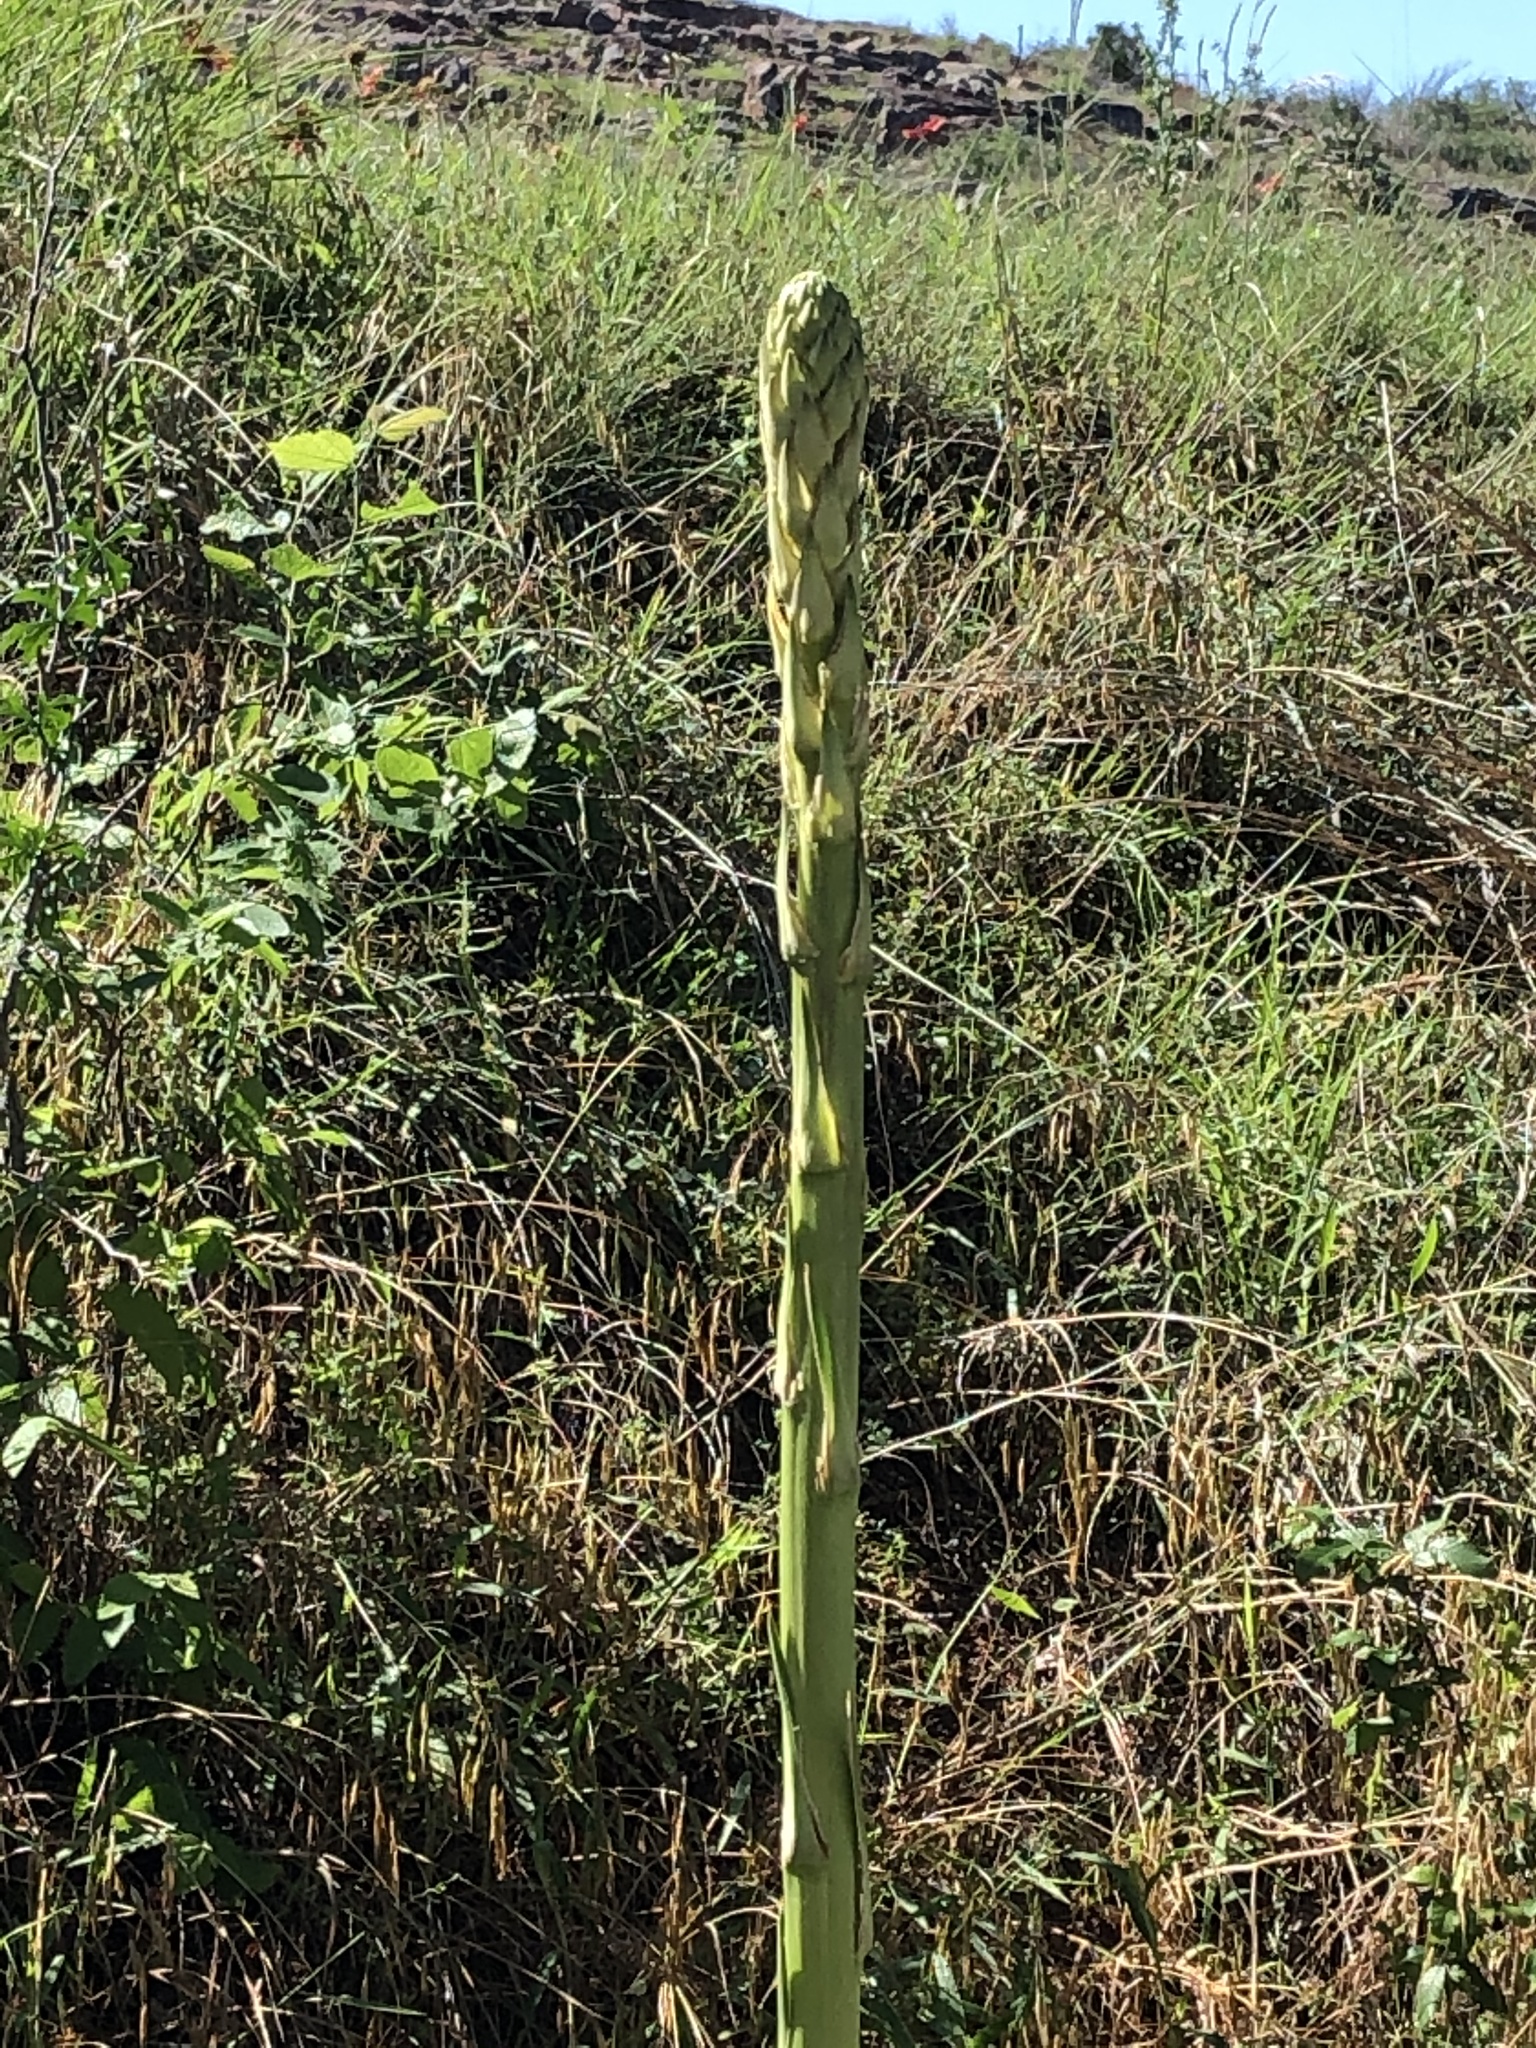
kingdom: Plantae
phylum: Tracheophyta
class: Liliopsida
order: Asparagales
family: Asparagaceae
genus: Yucca
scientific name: Yucca constricta
